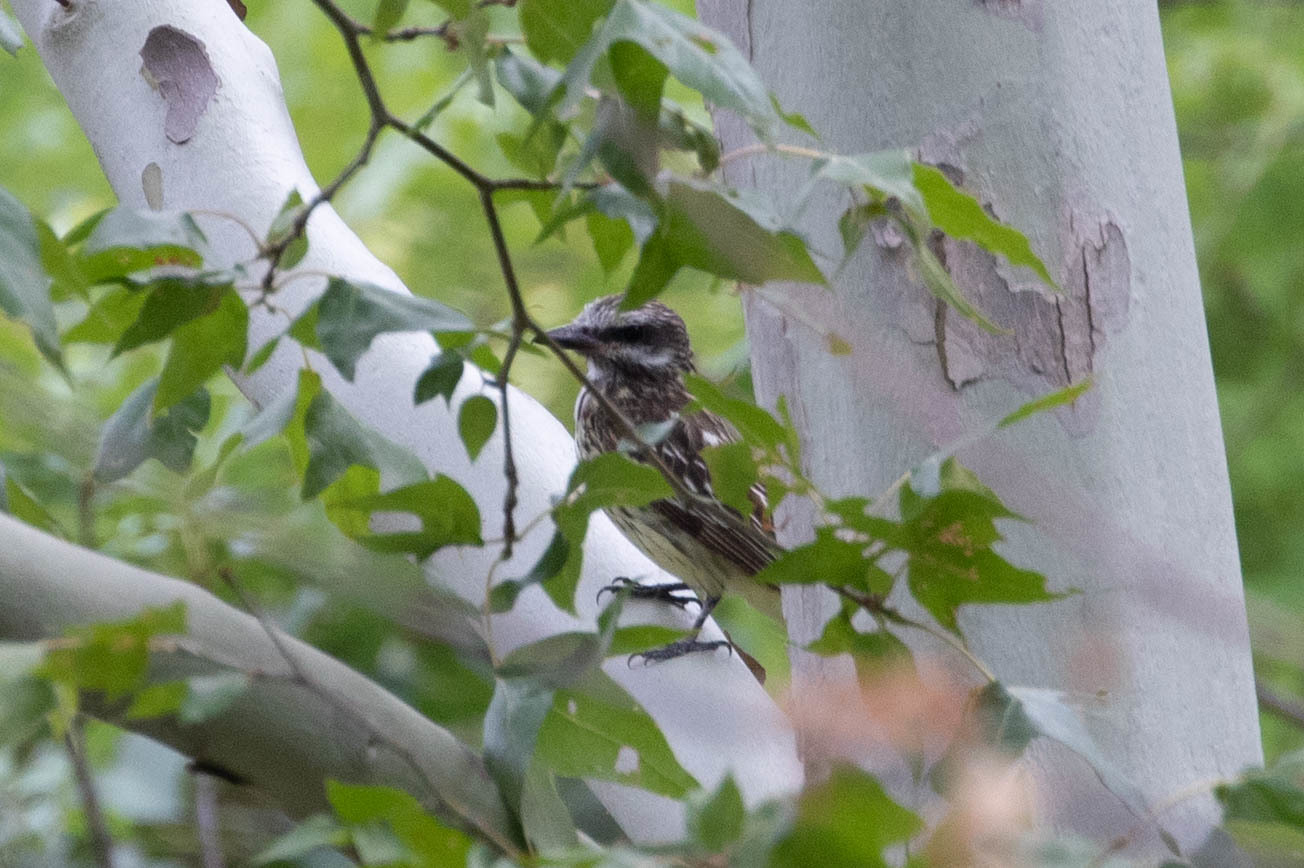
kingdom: Animalia
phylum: Chordata
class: Aves
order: Passeriformes
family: Tyrannidae
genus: Myiodynastes
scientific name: Myiodynastes luteiventris
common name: Sulphur-bellied flycatcher
